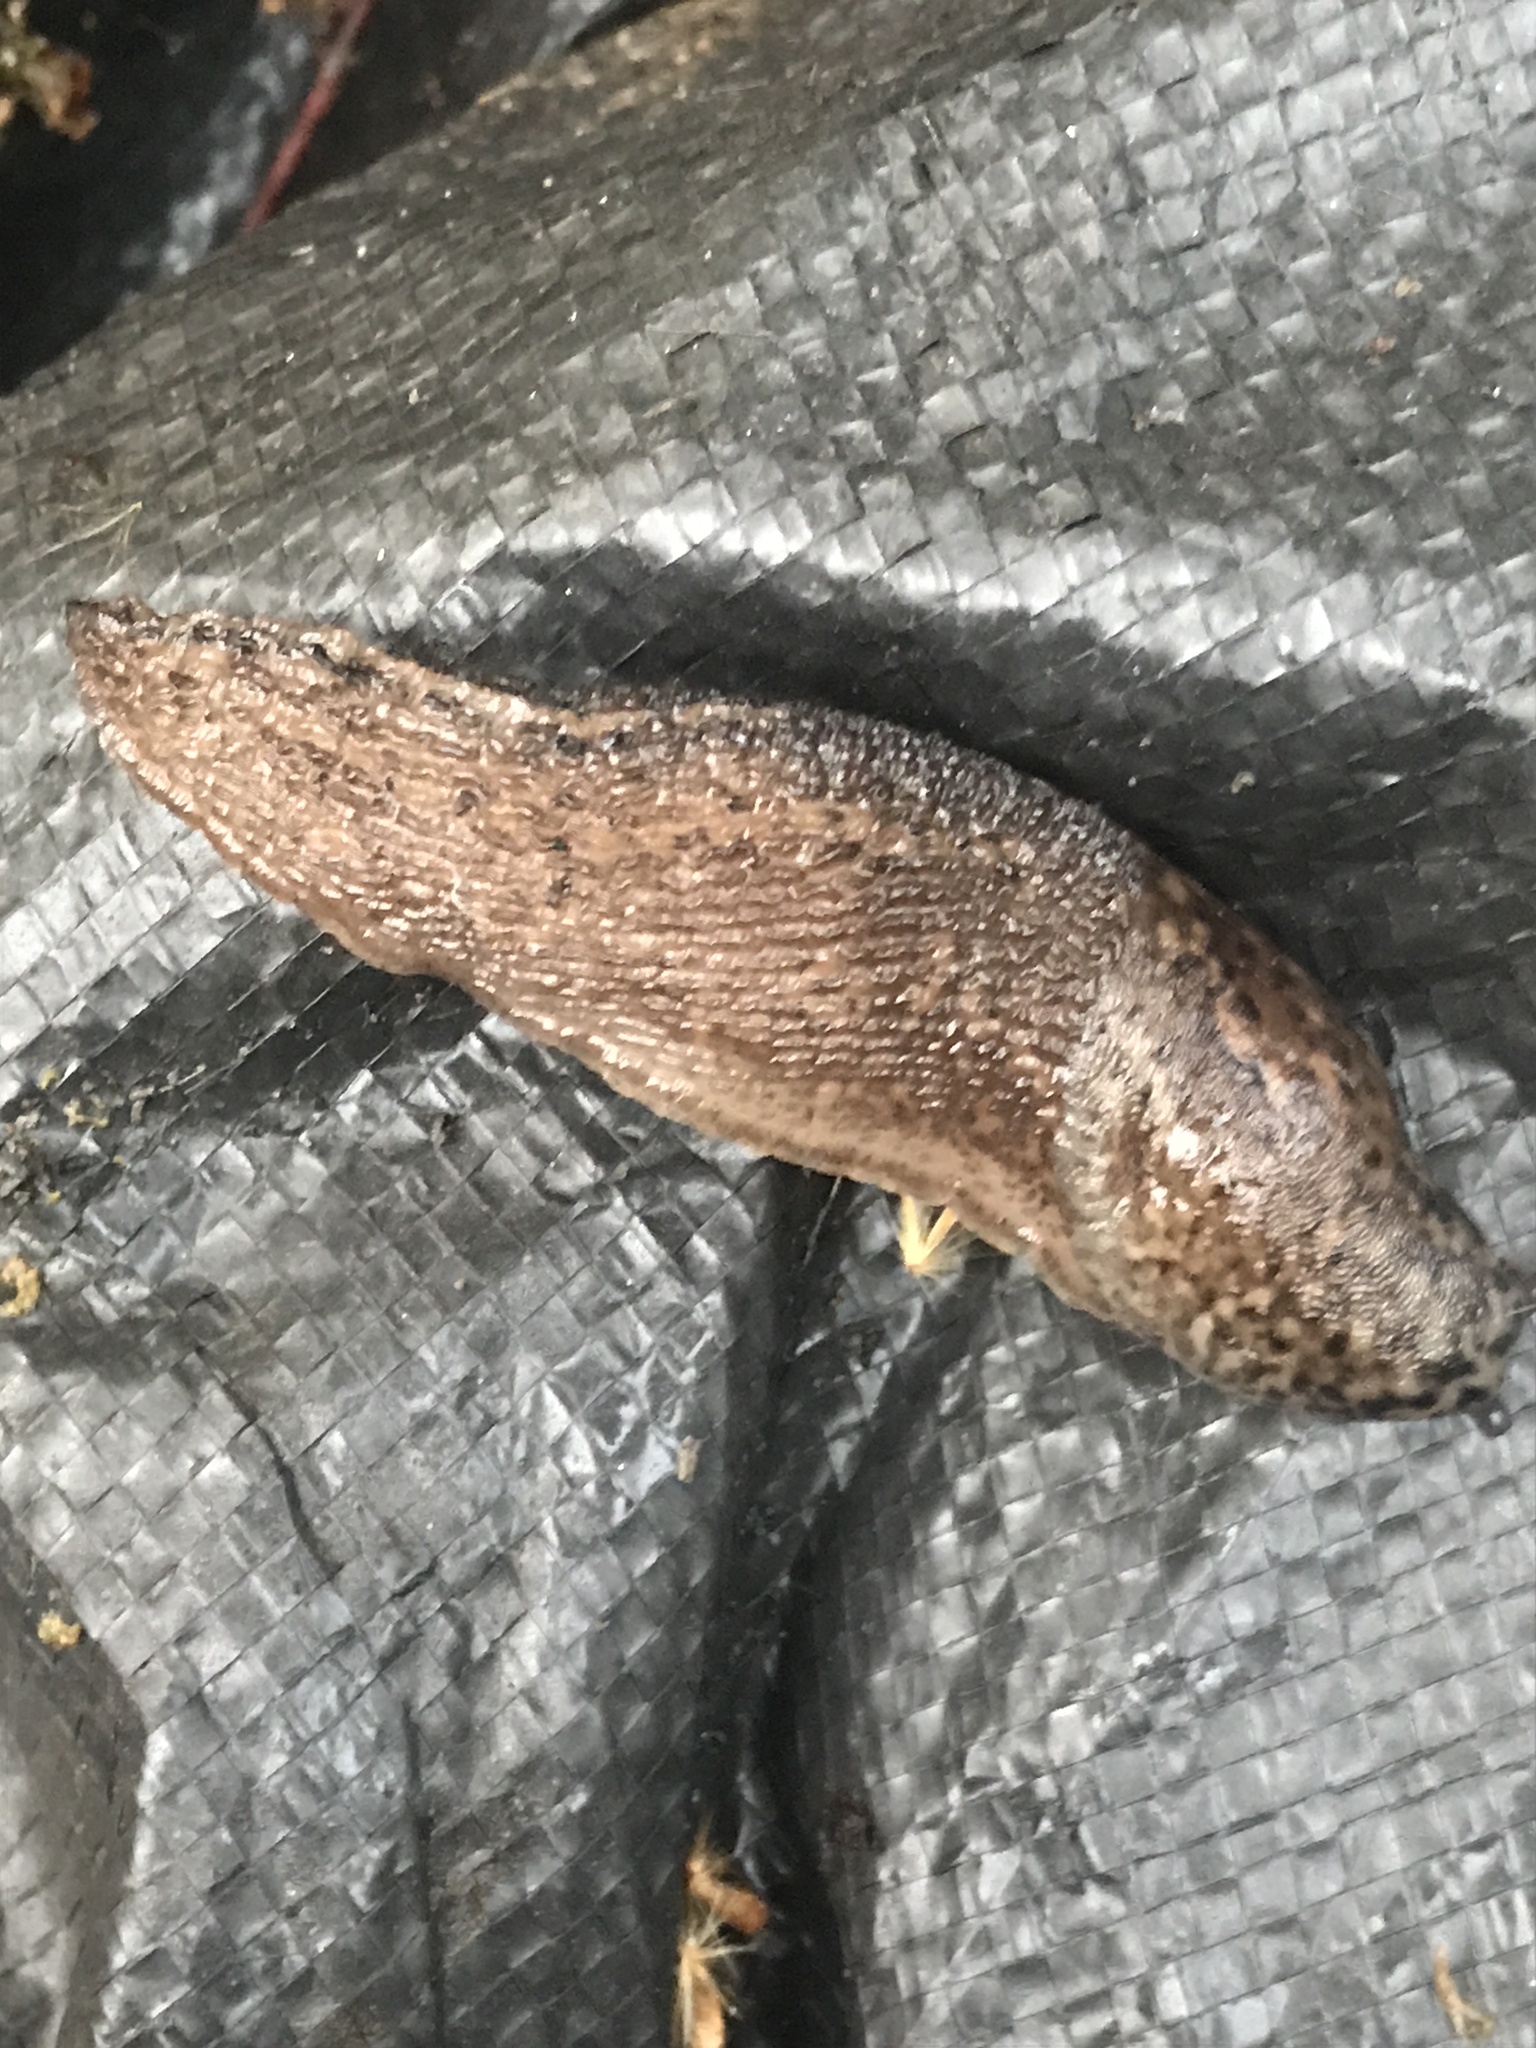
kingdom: Animalia
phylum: Mollusca
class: Gastropoda
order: Stylommatophora
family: Limacidae
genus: Limax
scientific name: Limax maximus
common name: Great grey slug
